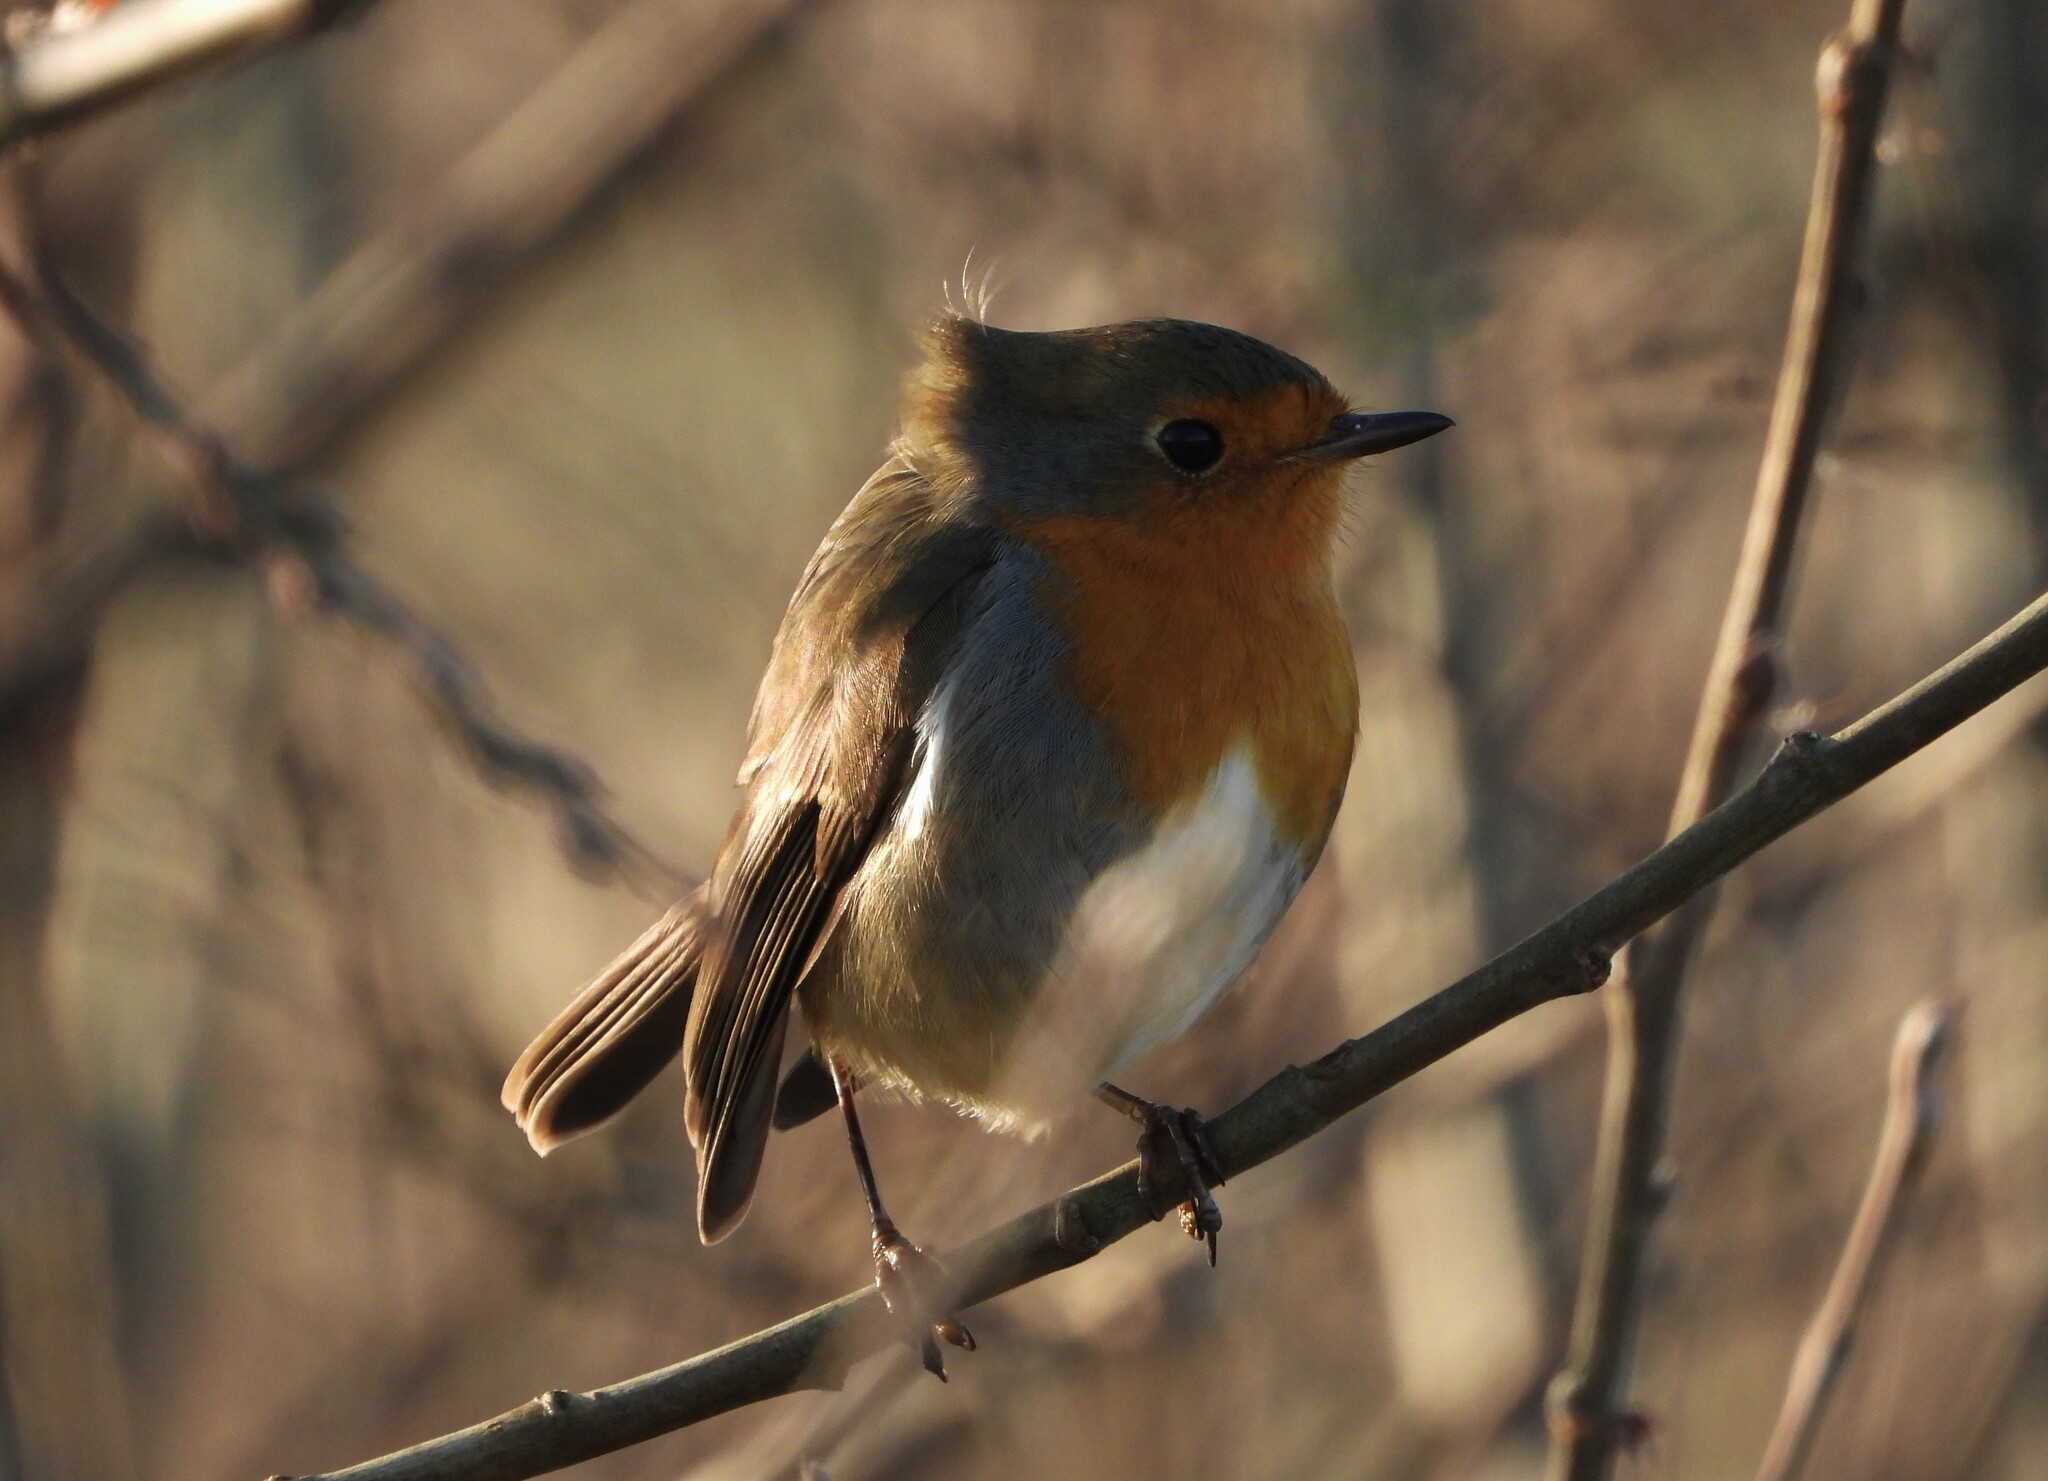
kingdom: Animalia
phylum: Chordata
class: Aves
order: Passeriformes
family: Muscicapidae
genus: Erithacus
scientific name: Erithacus rubecula
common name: European robin
